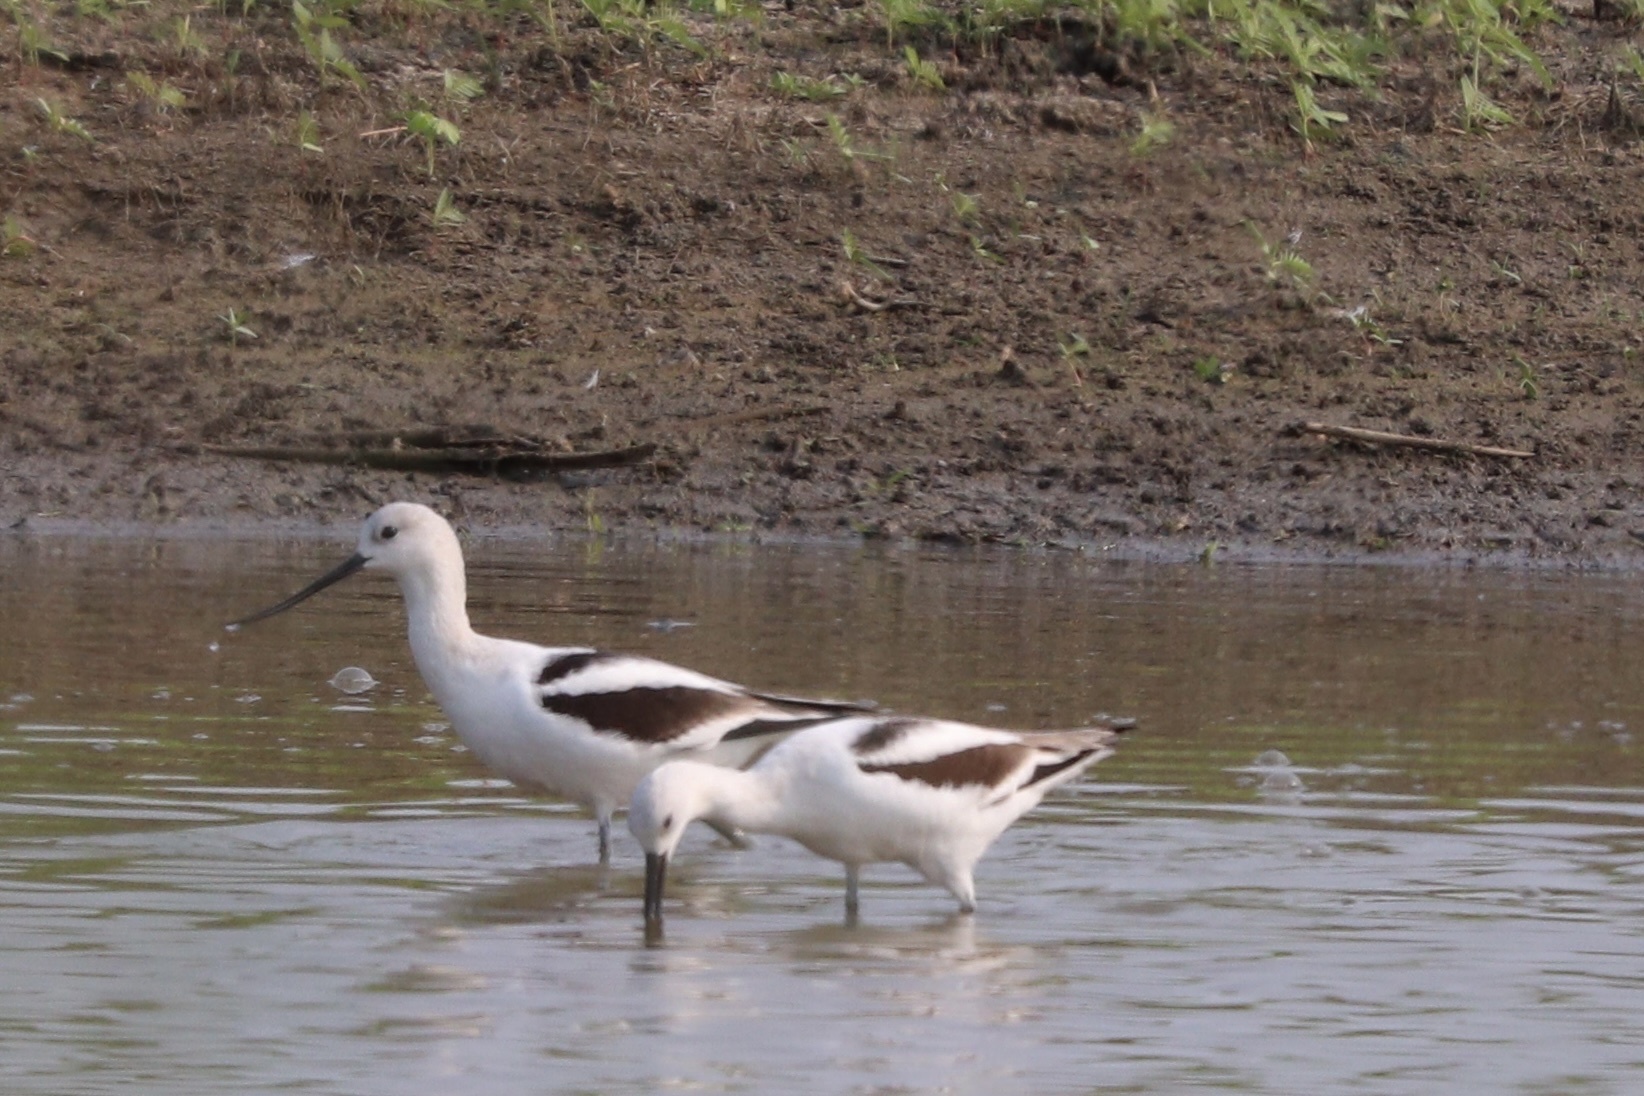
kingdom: Animalia
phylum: Chordata
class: Aves
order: Charadriiformes
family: Recurvirostridae
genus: Recurvirostra
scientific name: Recurvirostra americana
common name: American avocet
